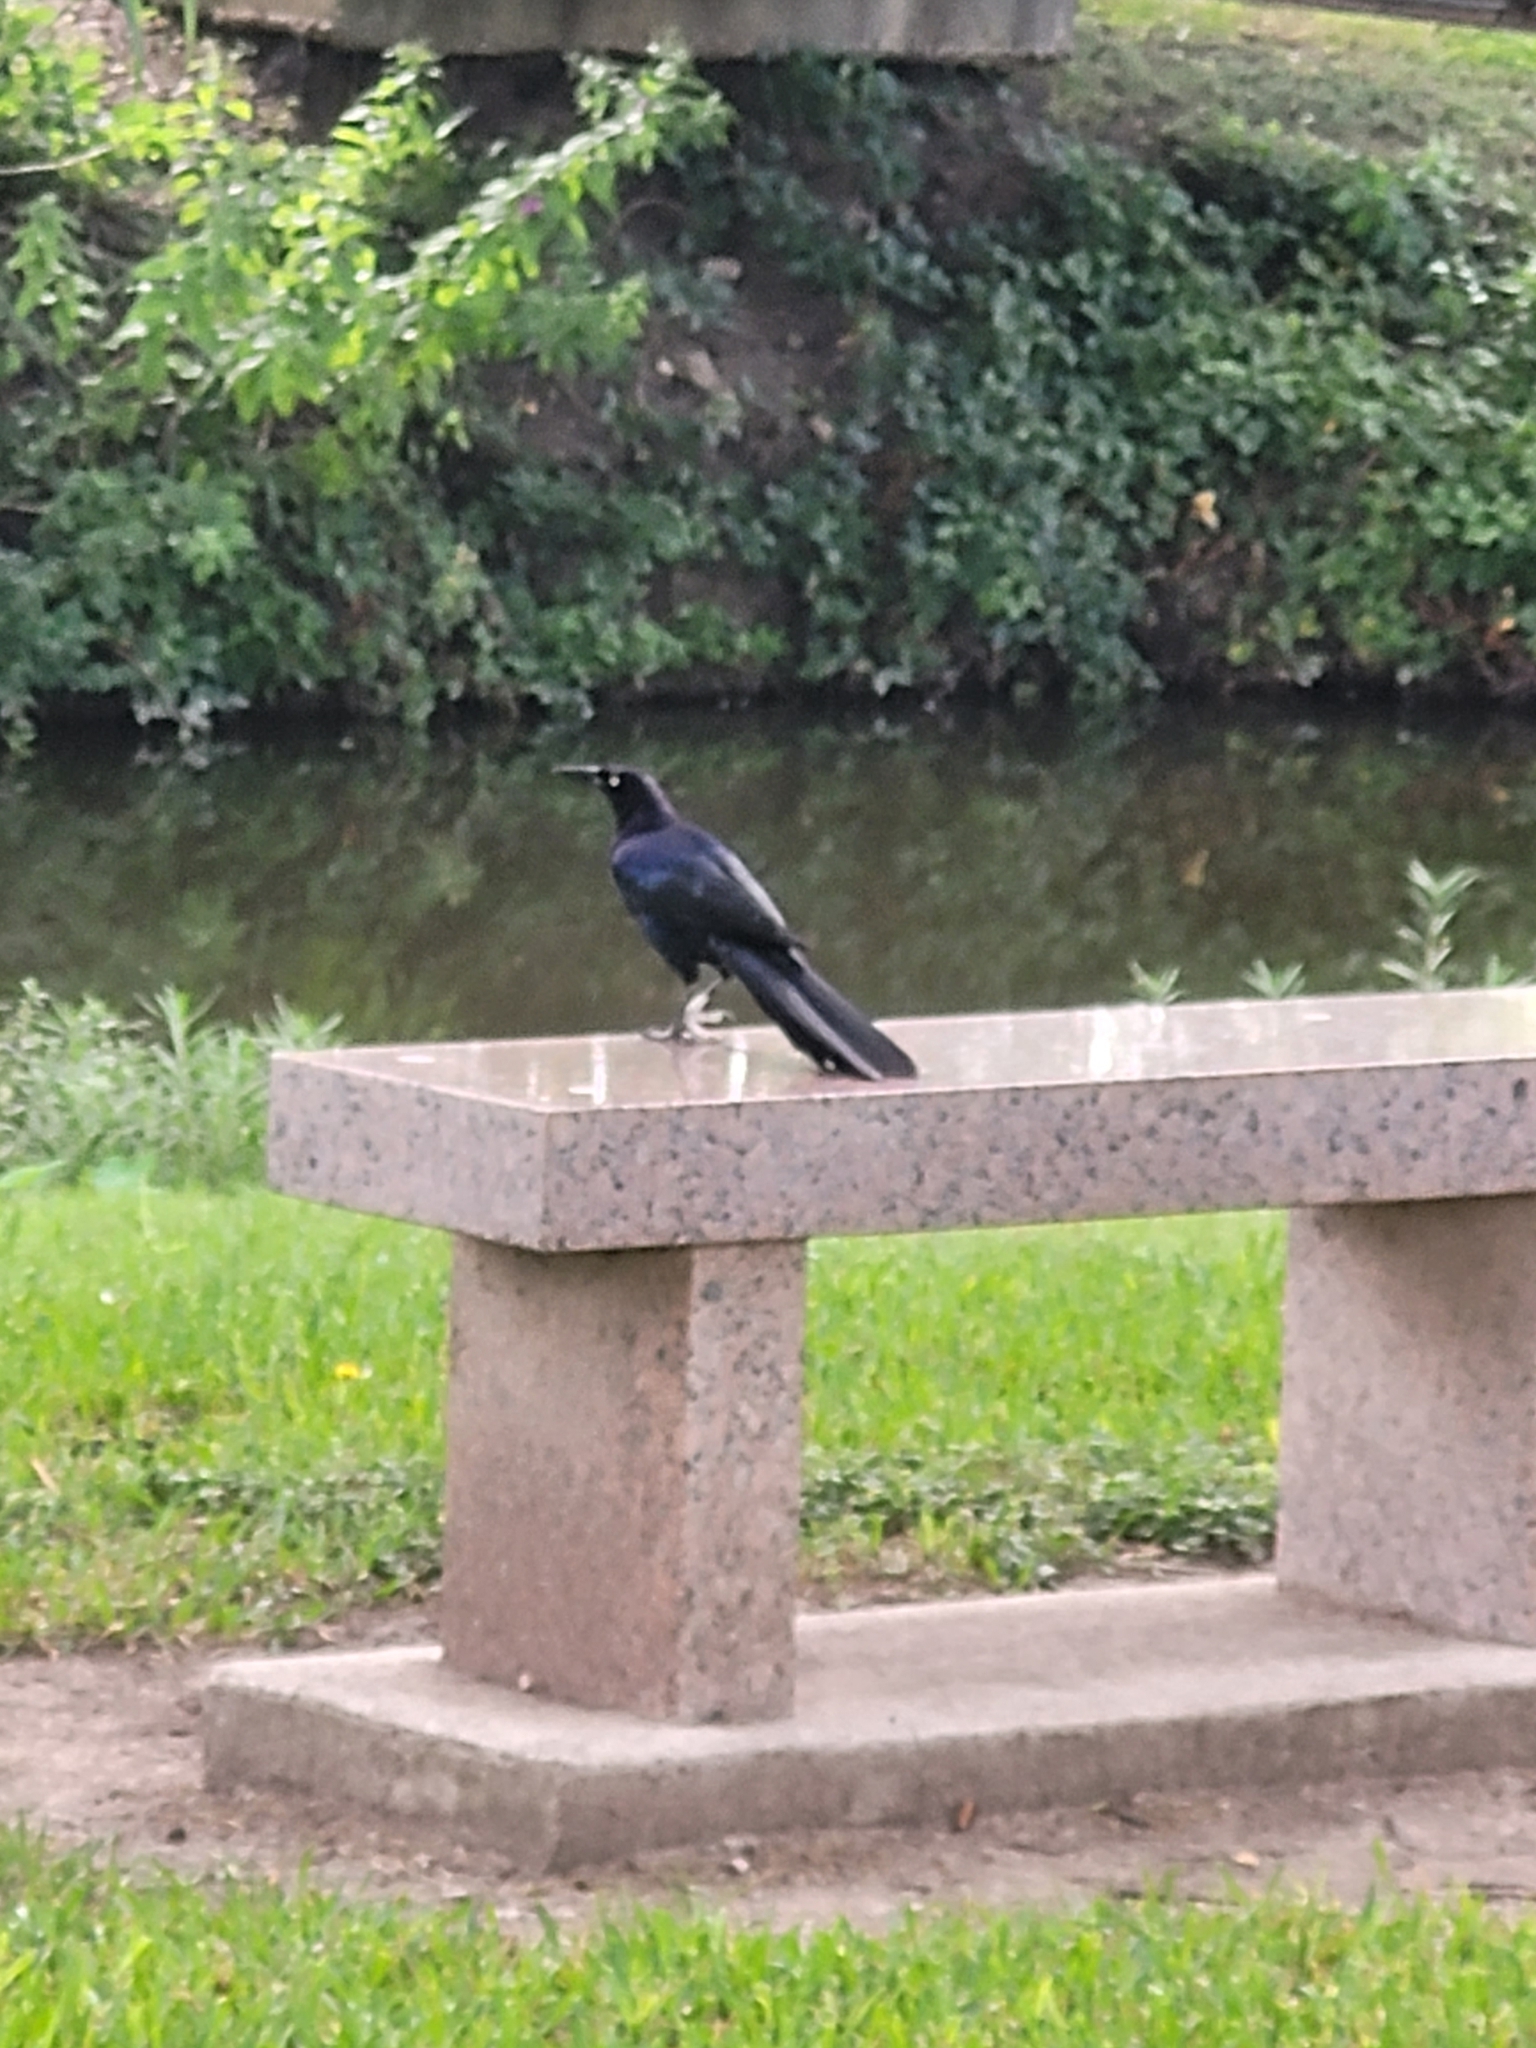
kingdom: Animalia
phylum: Chordata
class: Aves
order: Passeriformes
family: Icteridae
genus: Quiscalus
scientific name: Quiscalus mexicanus
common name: Great-tailed grackle
